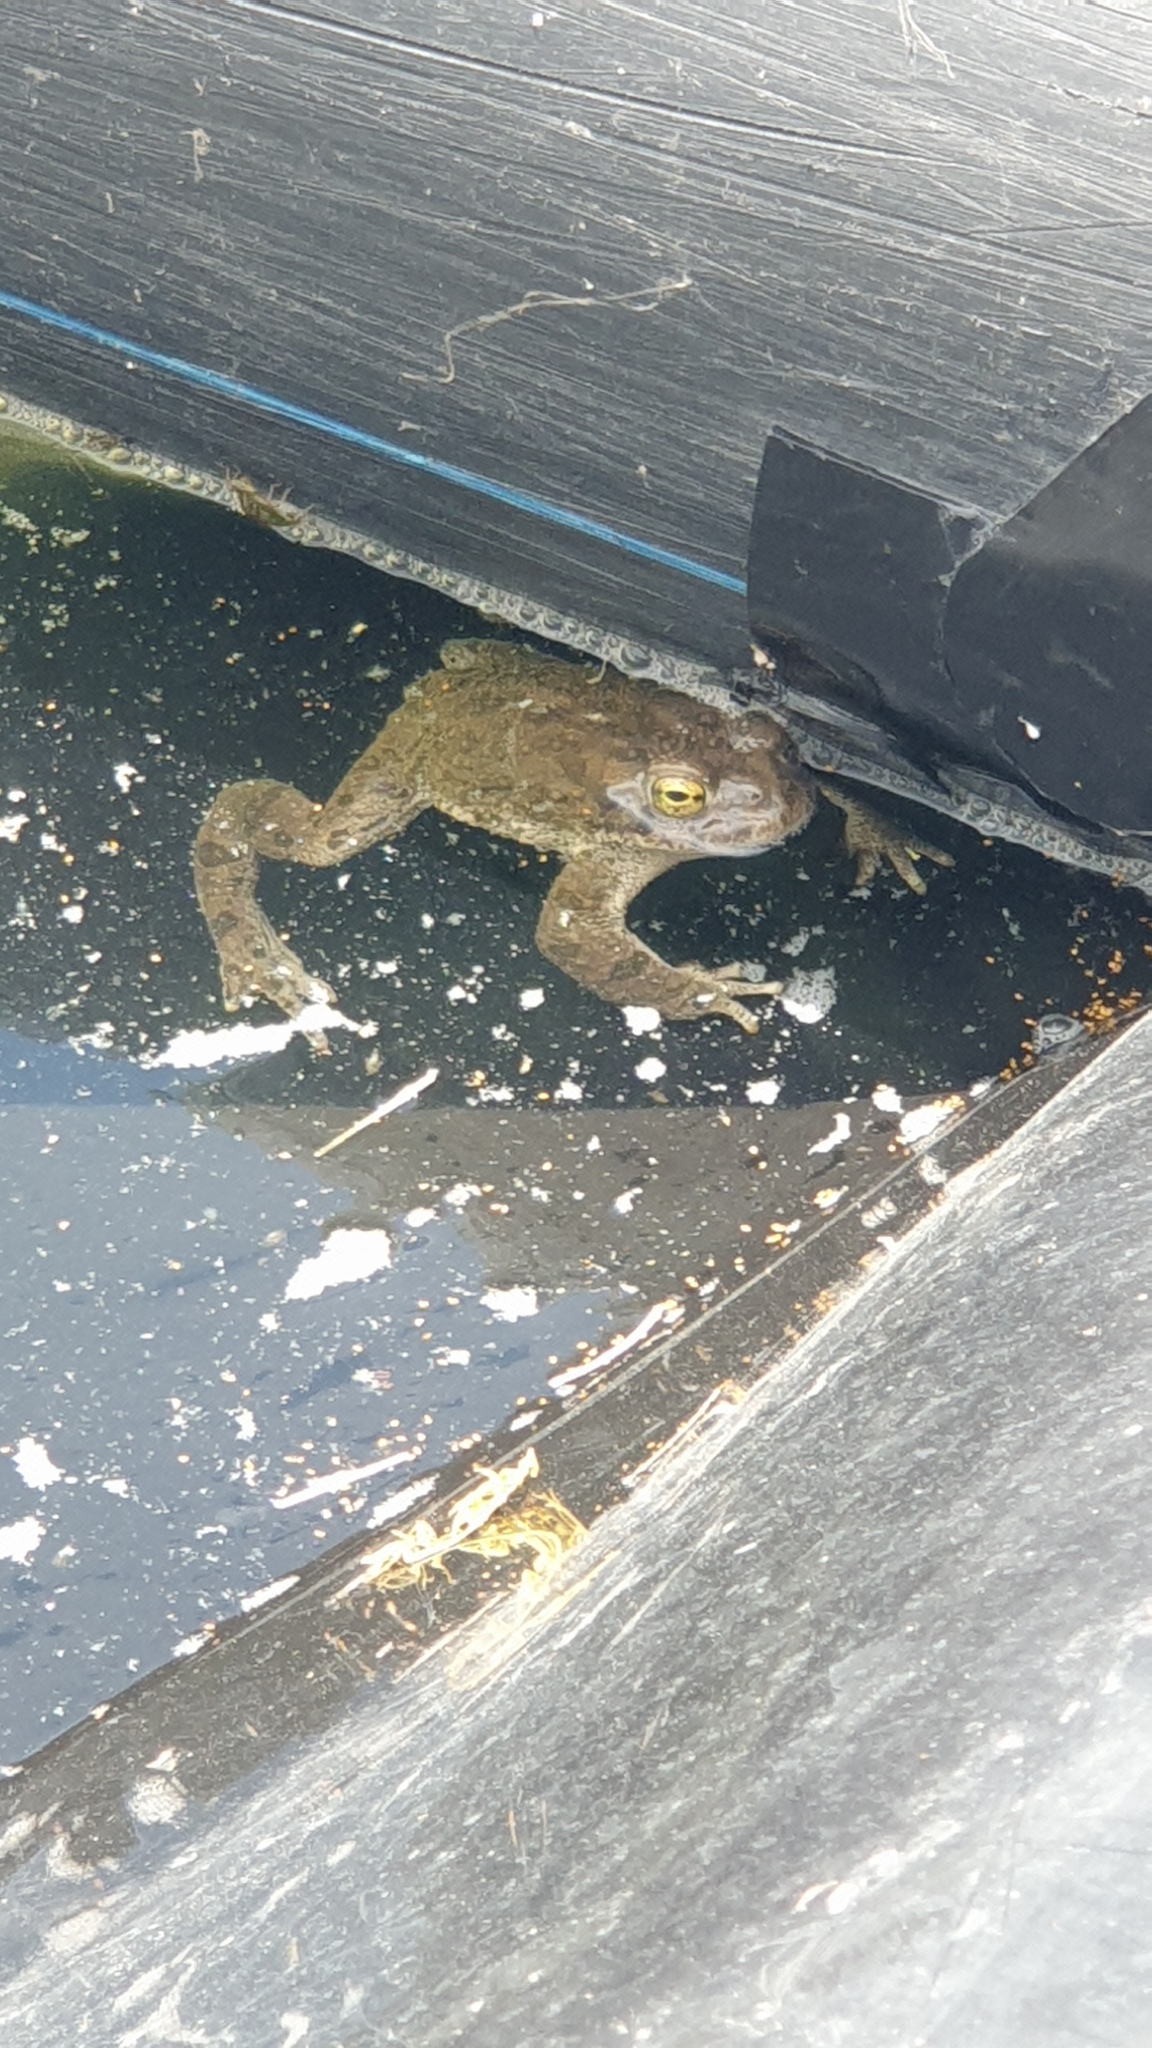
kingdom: Animalia
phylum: Chordata
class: Amphibia
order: Anura
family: Bufonidae
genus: Bufotes
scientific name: Bufotes viridis
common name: European green toad
